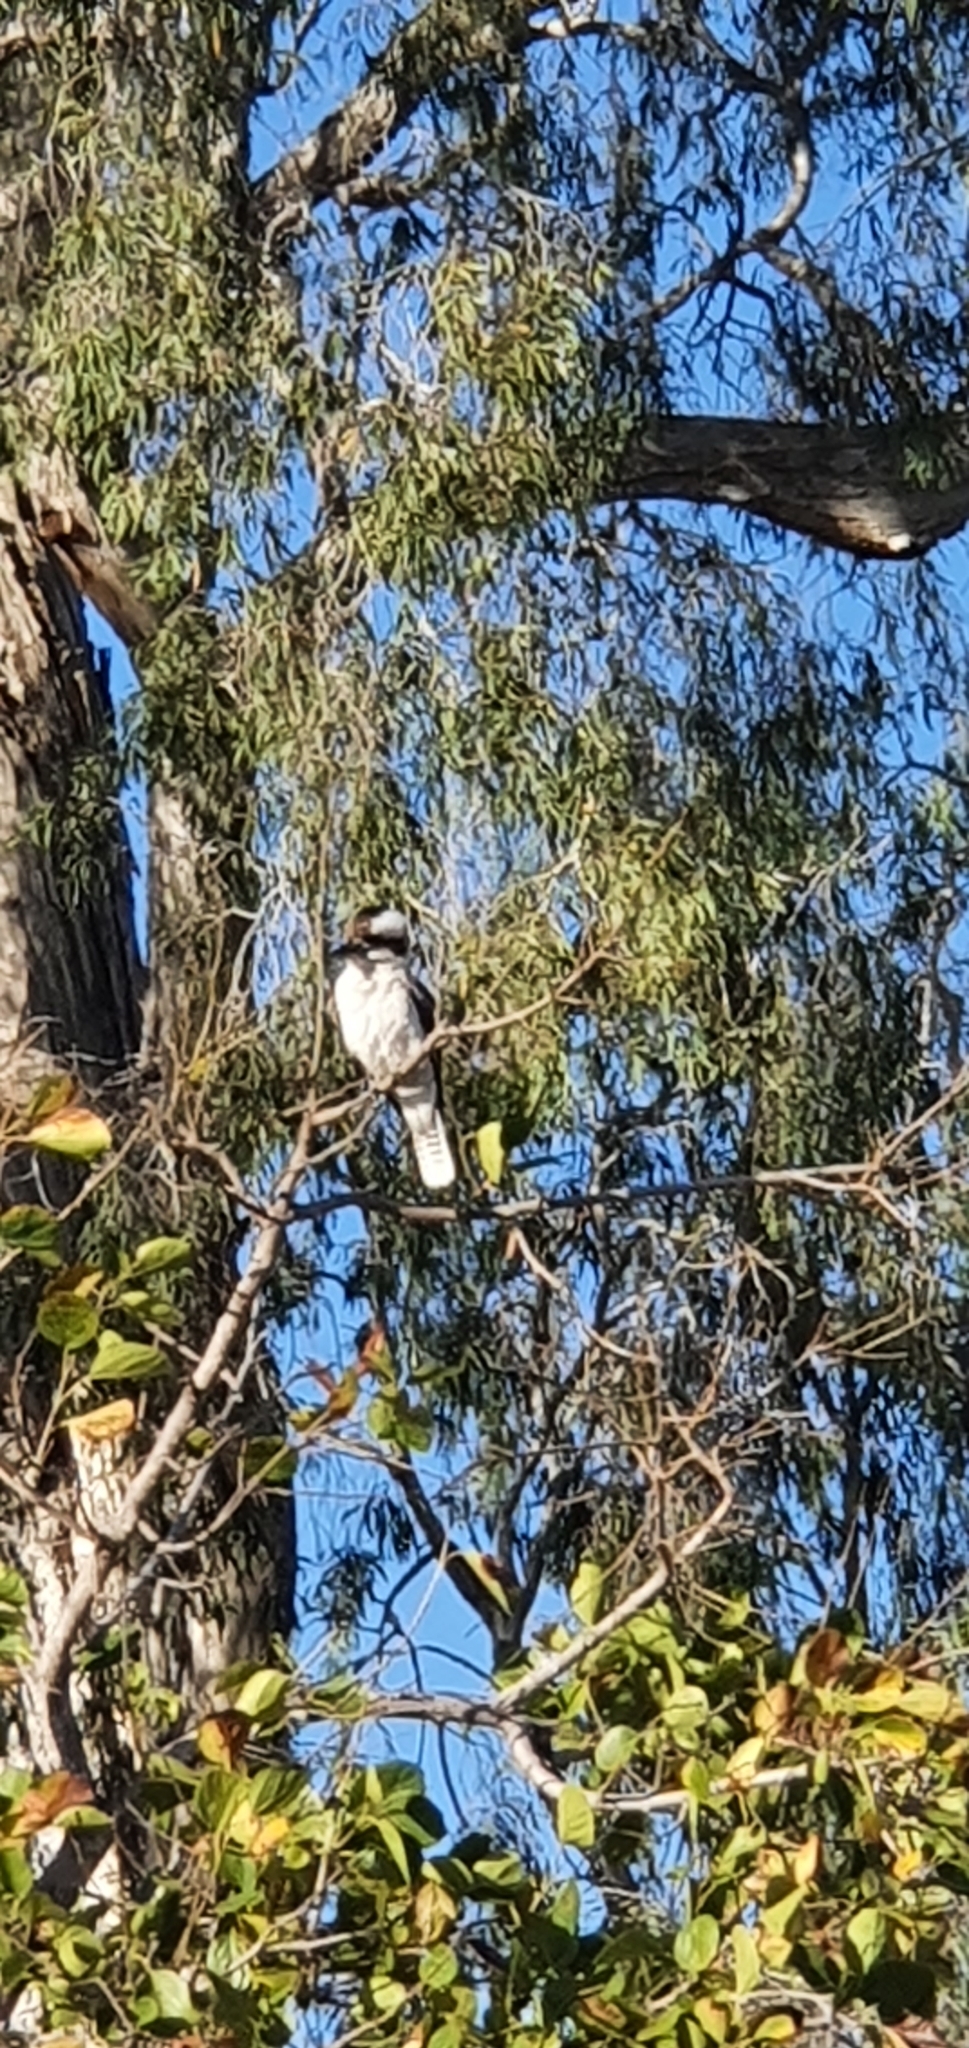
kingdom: Animalia
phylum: Chordata
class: Aves
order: Coraciiformes
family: Alcedinidae
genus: Dacelo
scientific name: Dacelo novaeguineae
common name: Laughing kookaburra
